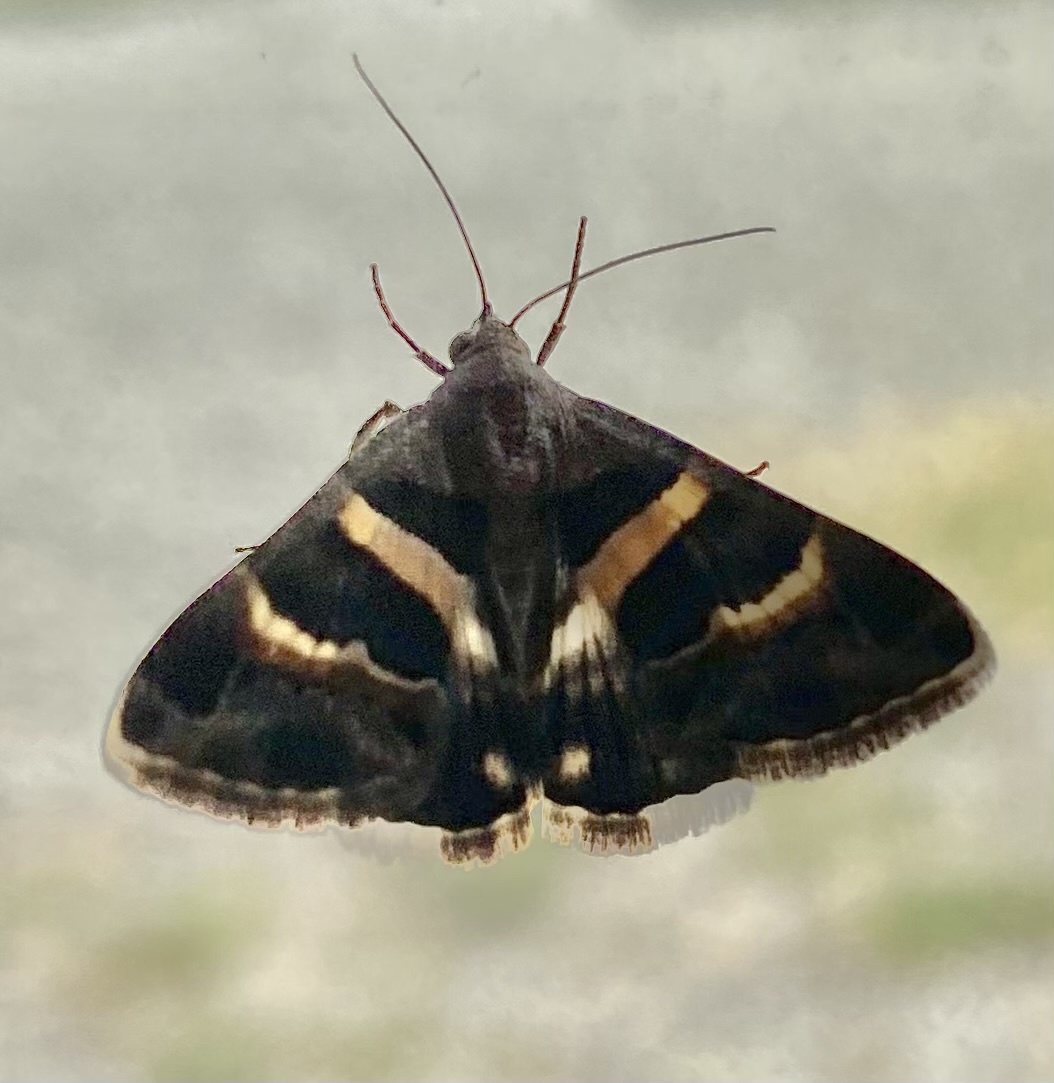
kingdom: Animalia
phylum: Arthropoda
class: Insecta
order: Lepidoptera
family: Erebidae
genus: Grammodes
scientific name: Grammodes stolida
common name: Geometrician
